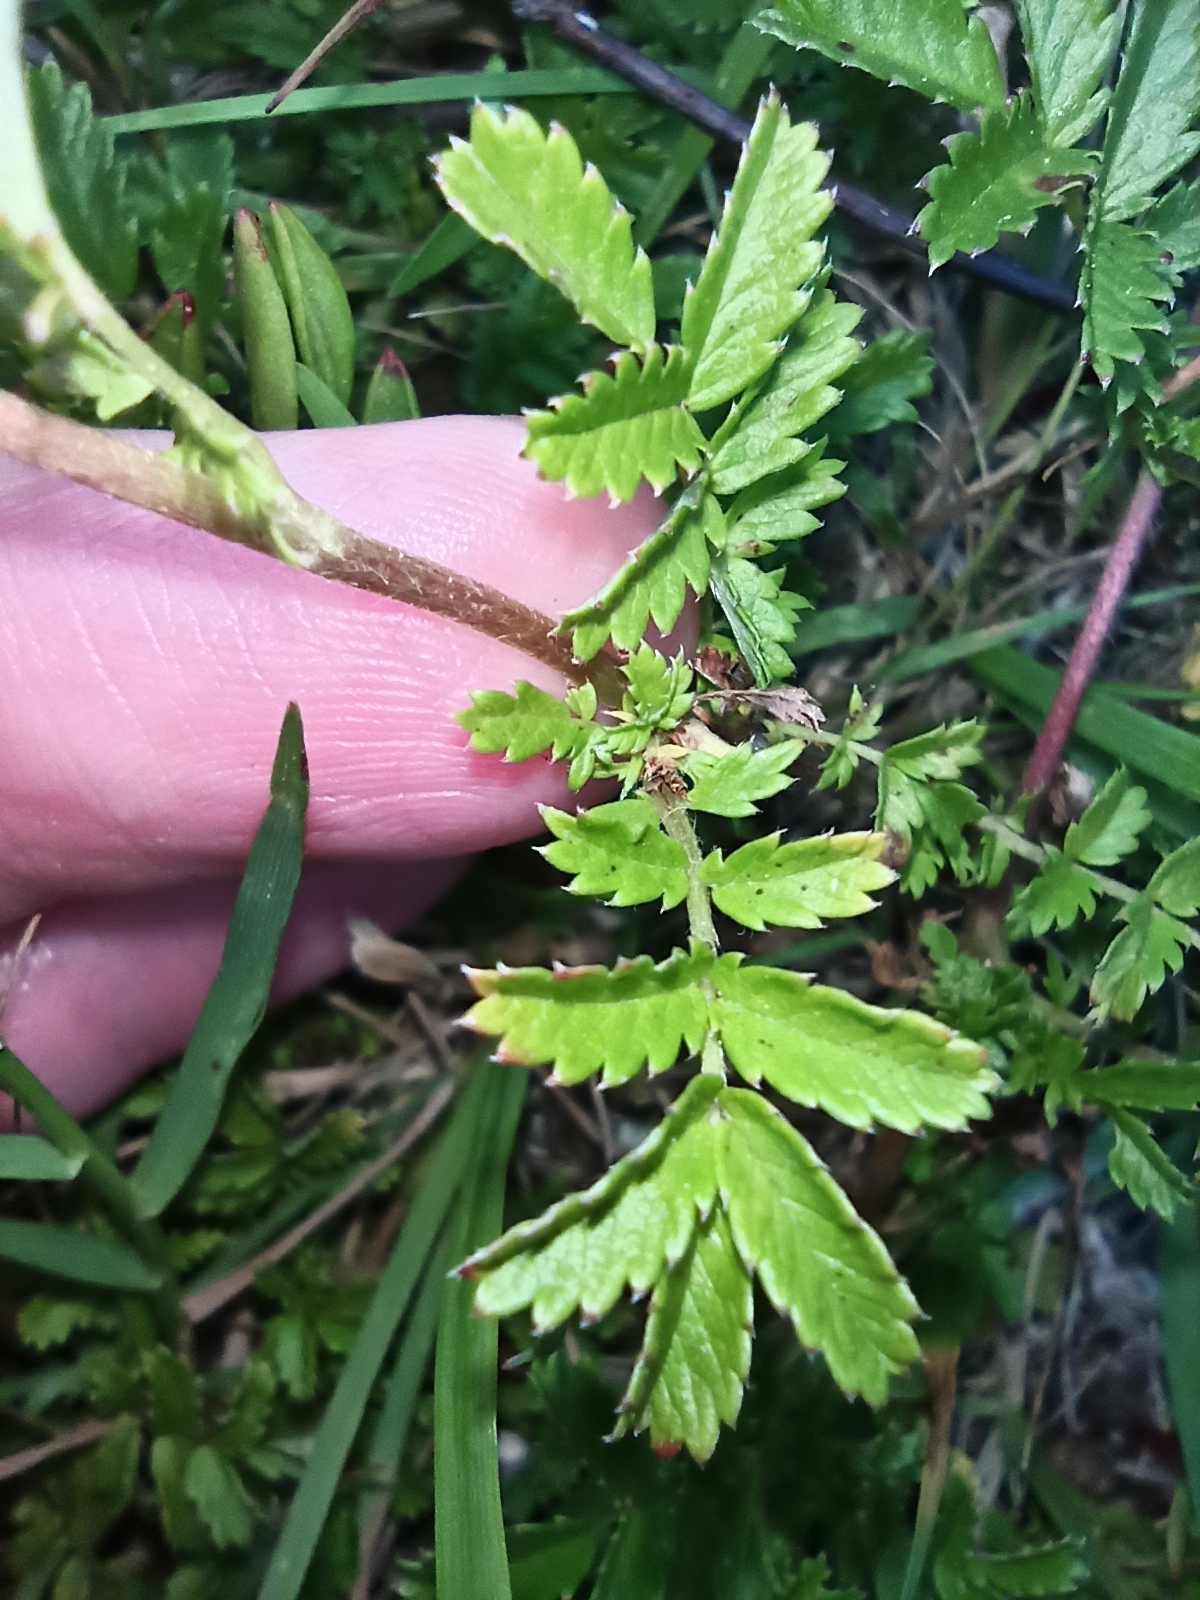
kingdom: Plantae
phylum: Tracheophyta
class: Magnoliopsida
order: Rosales
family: Rosaceae
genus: Acaena
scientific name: Acaena novae-zelandiae
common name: Pirri-pirri-bur
